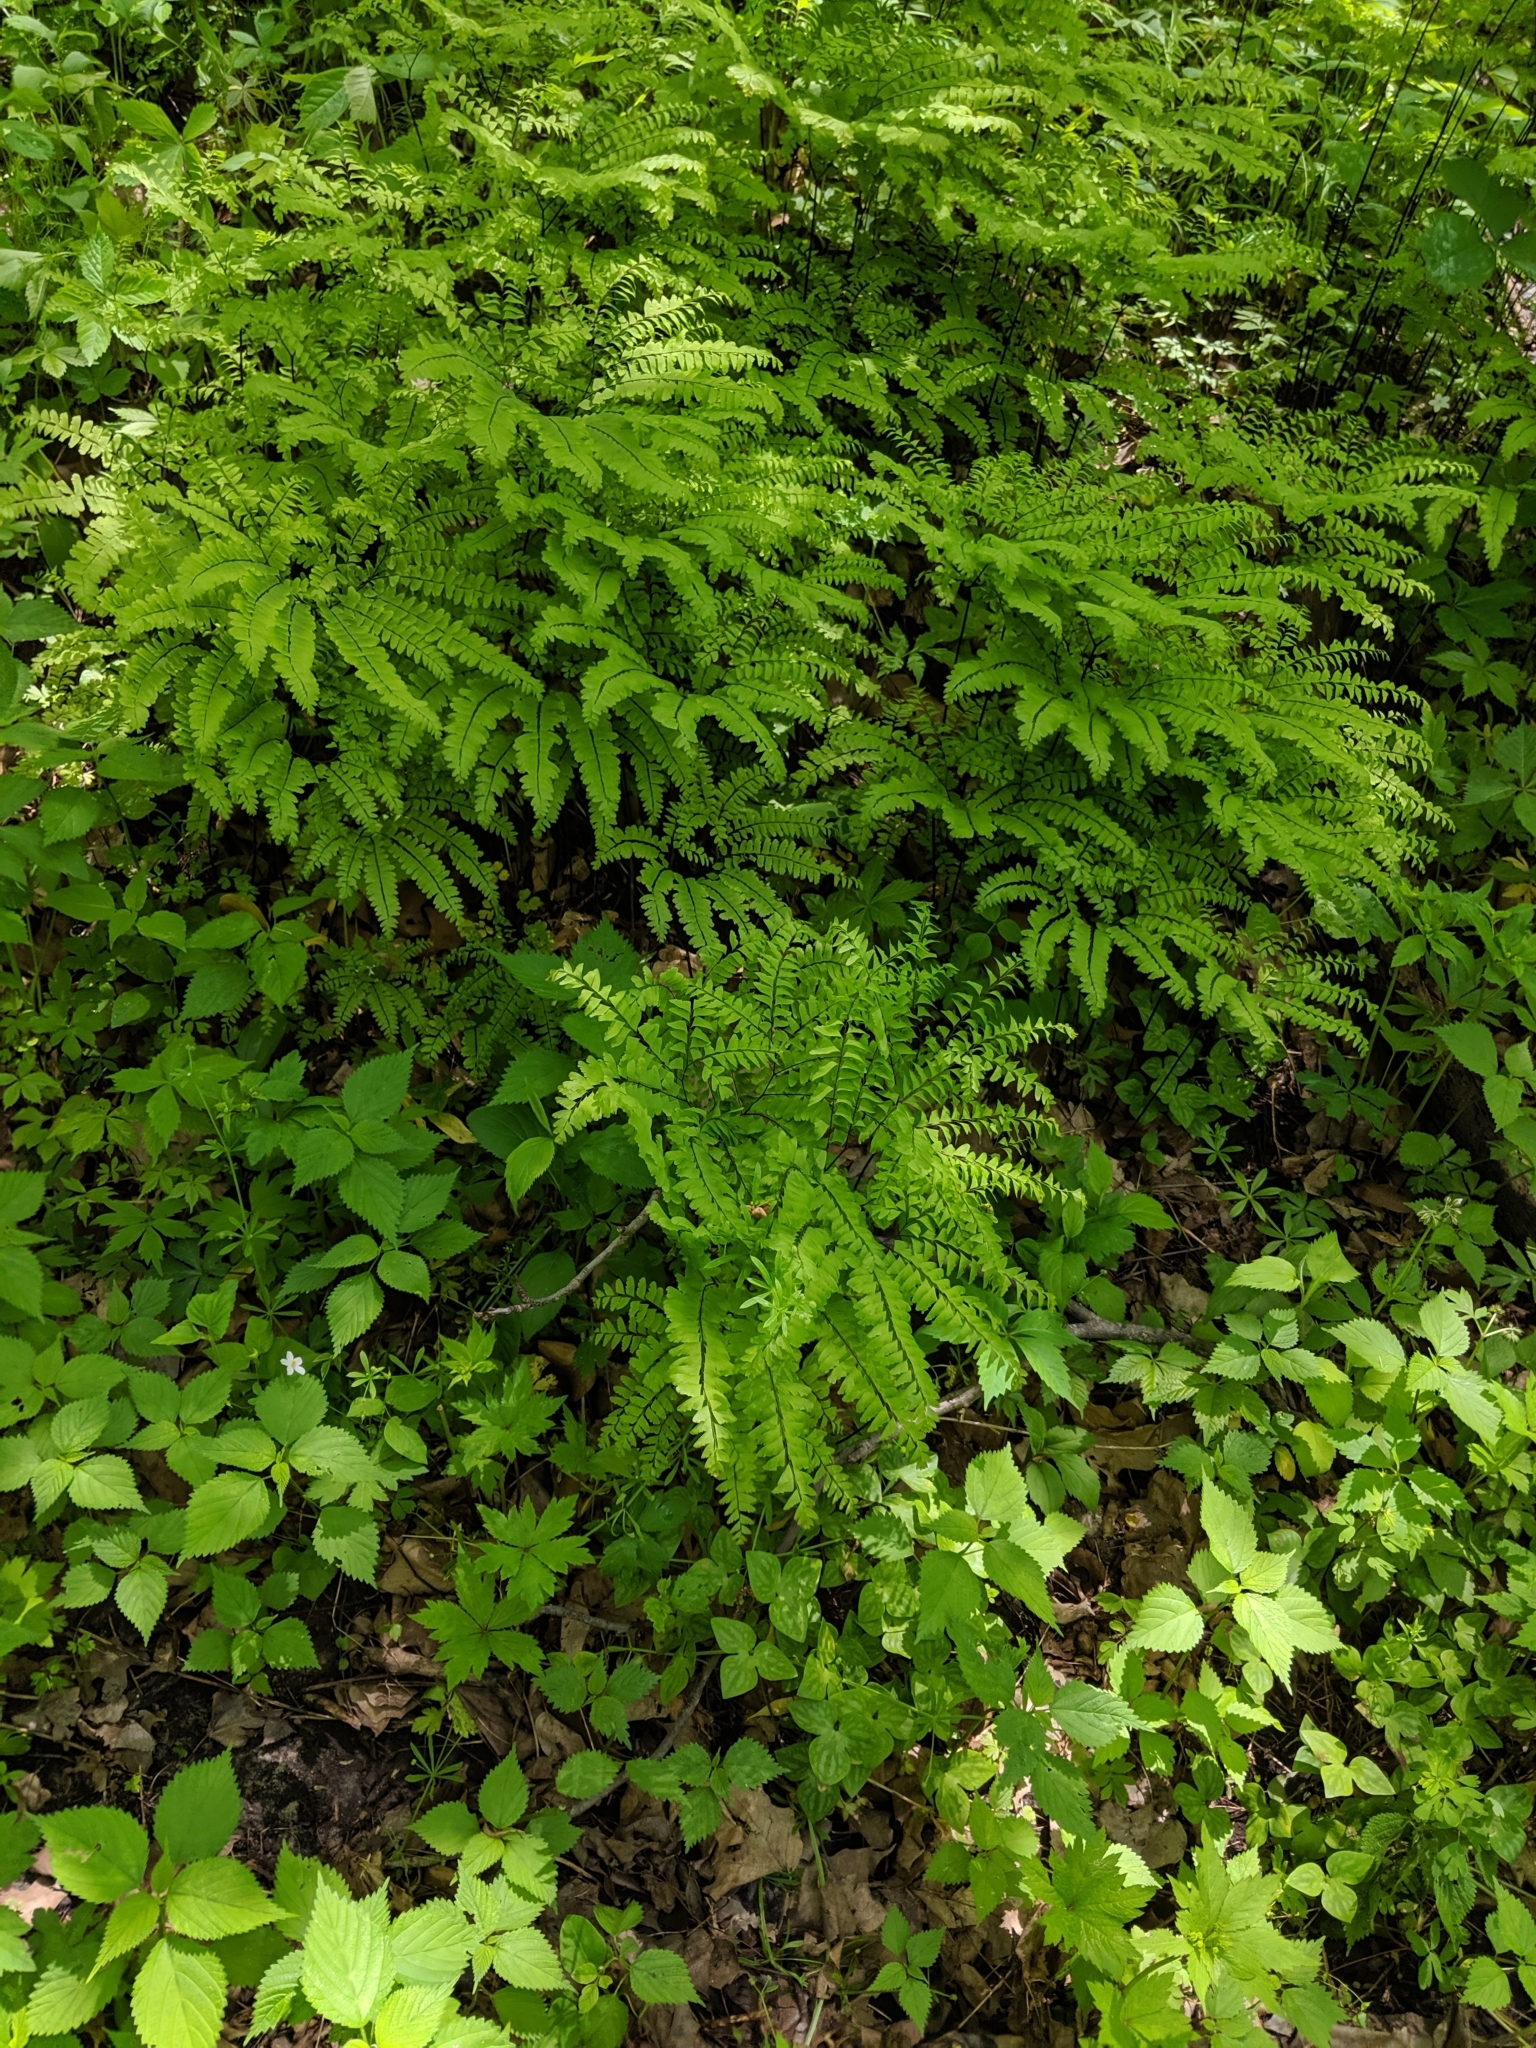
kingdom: Plantae
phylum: Tracheophyta
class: Polypodiopsida
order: Polypodiales
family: Pteridaceae
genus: Adiantum
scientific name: Adiantum pedatum
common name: Five-finger fern
